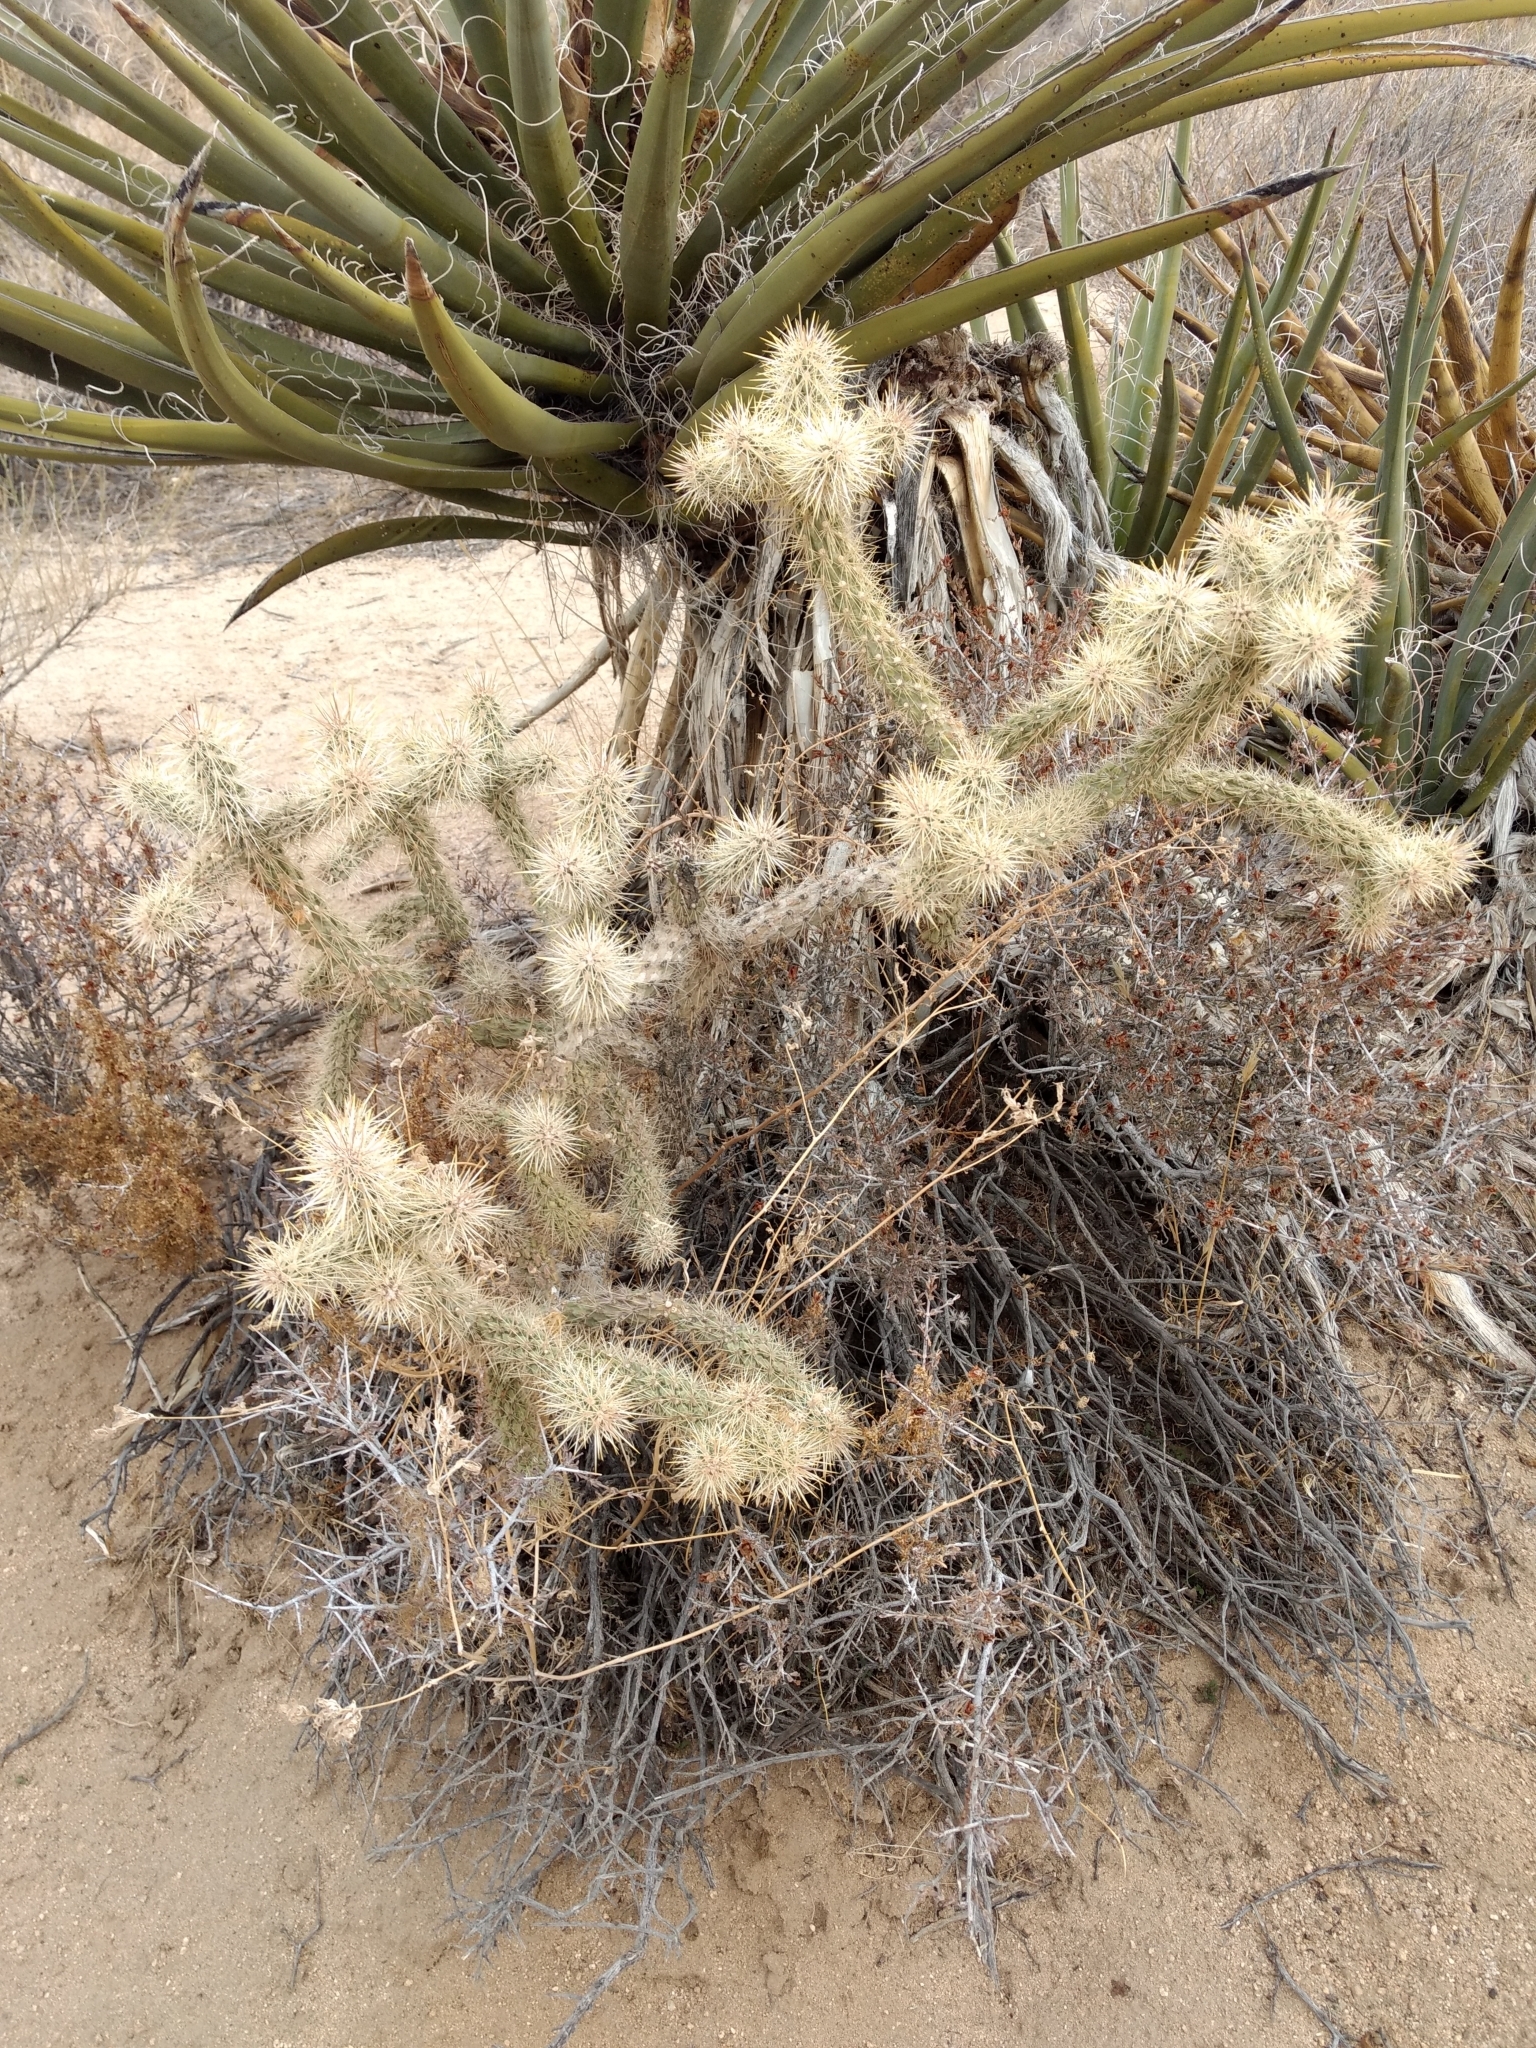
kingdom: Plantae
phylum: Tracheophyta
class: Magnoliopsida
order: Caryophyllales
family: Cactaceae
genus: Cylindropuntia
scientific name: Cylindropuntia echinocarpa
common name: Ground cholla
